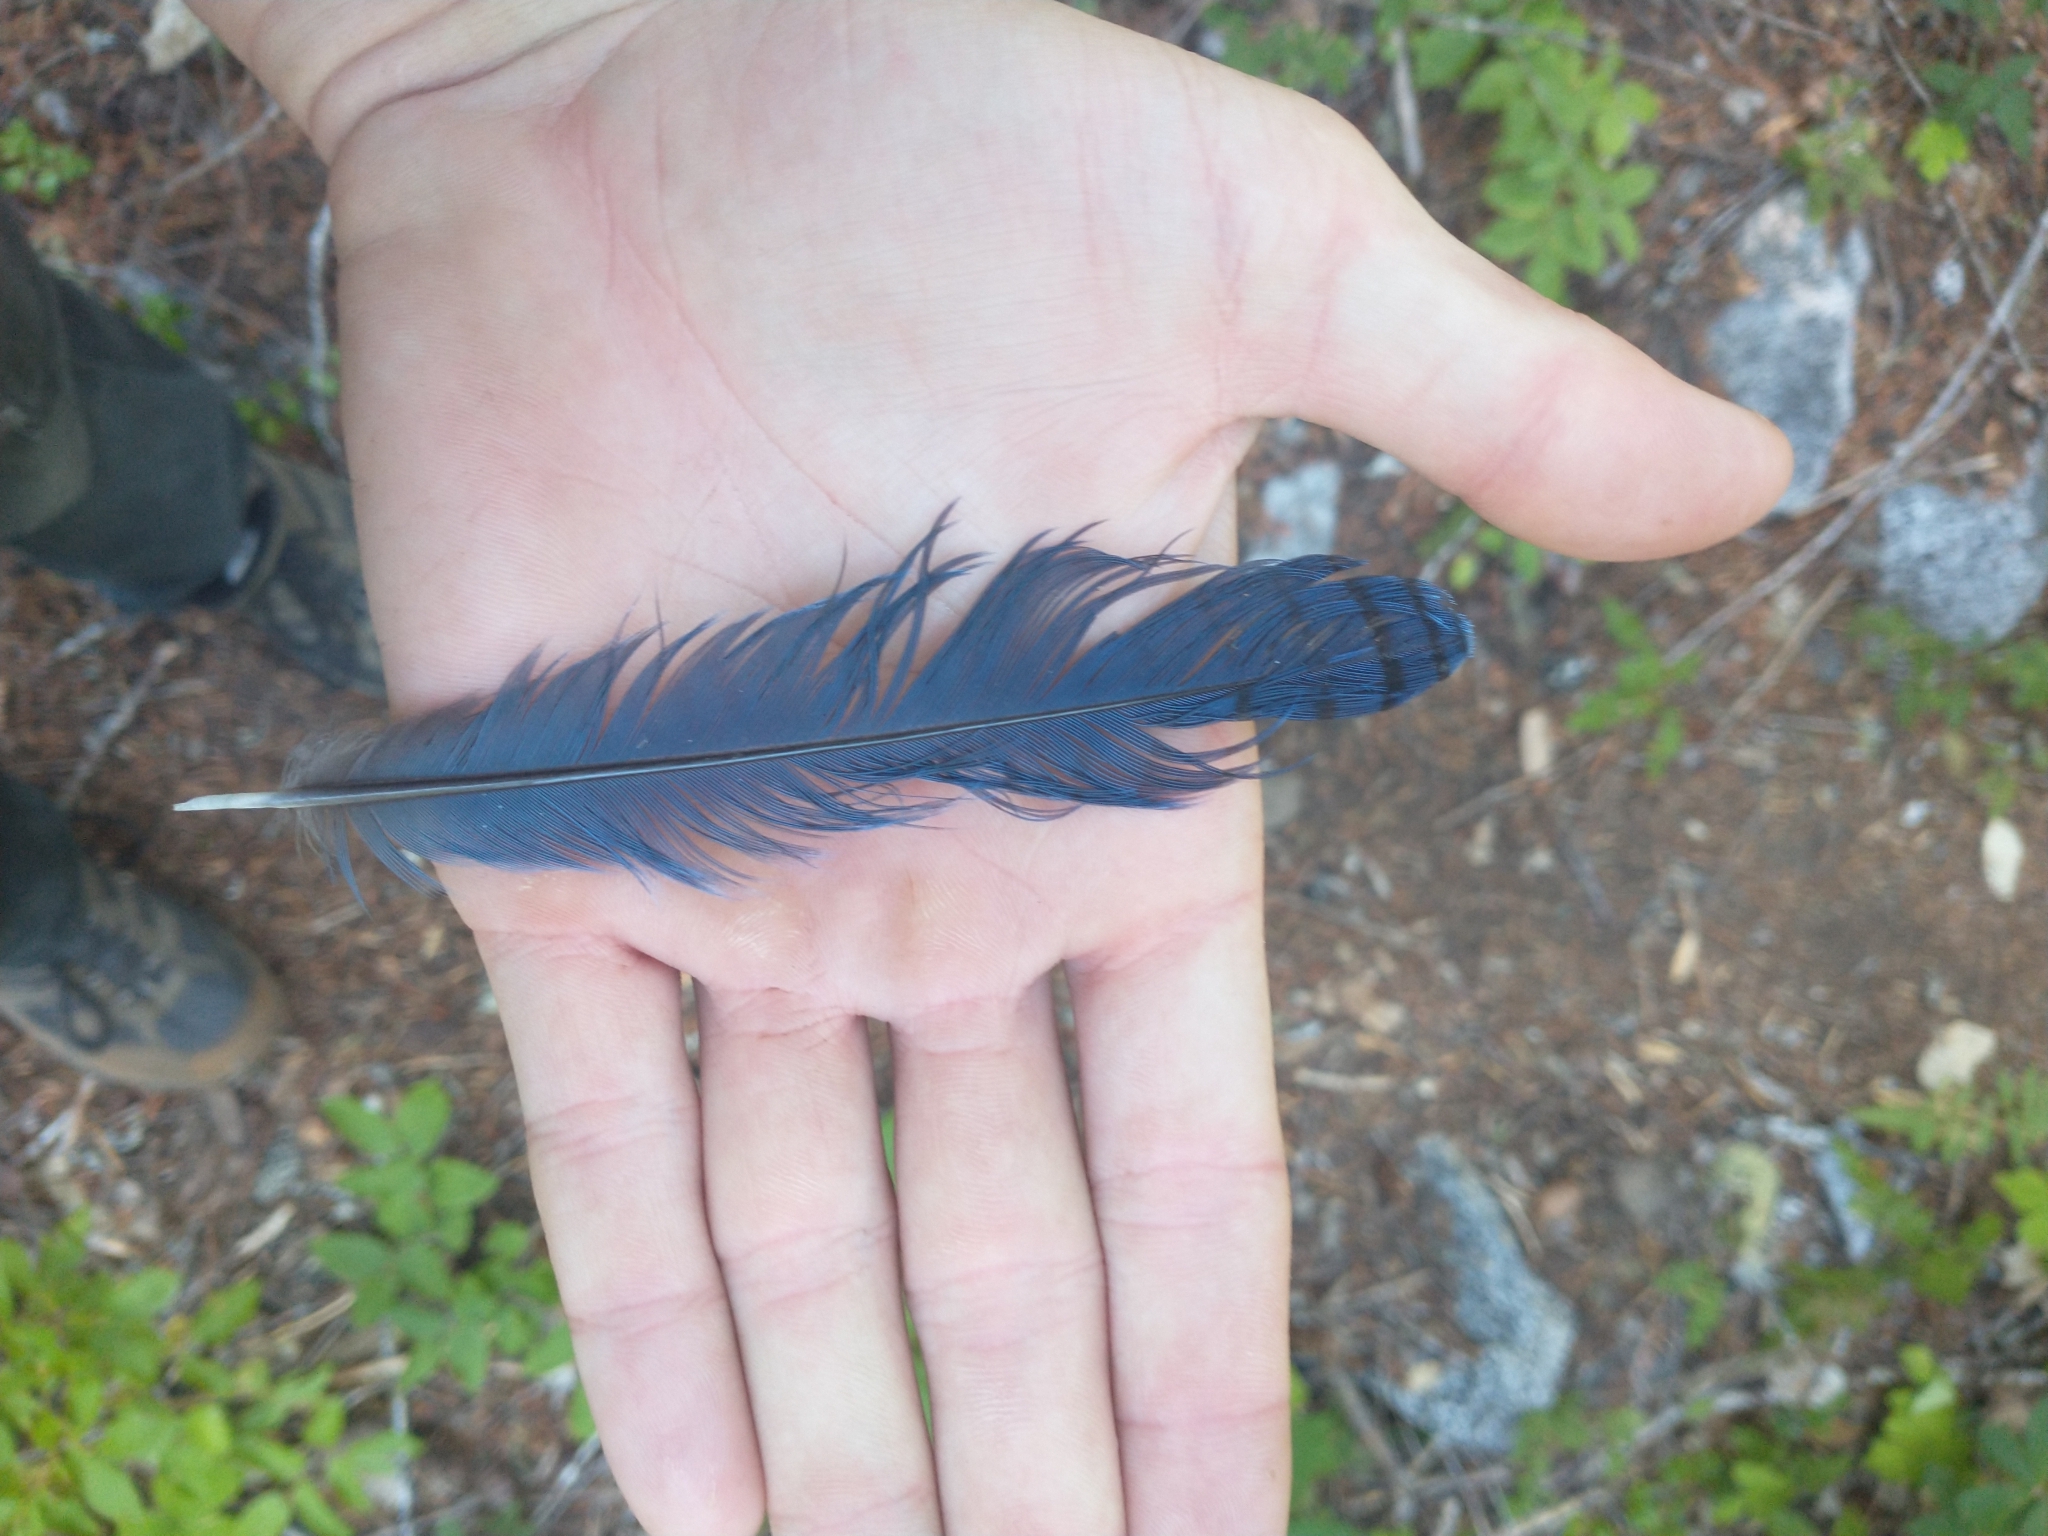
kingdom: Animalia
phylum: Chordata
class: Aves
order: Passeriformes
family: Corvidae
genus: Cyanocitta
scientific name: Cyanocitta stelleri
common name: Steller's jay
